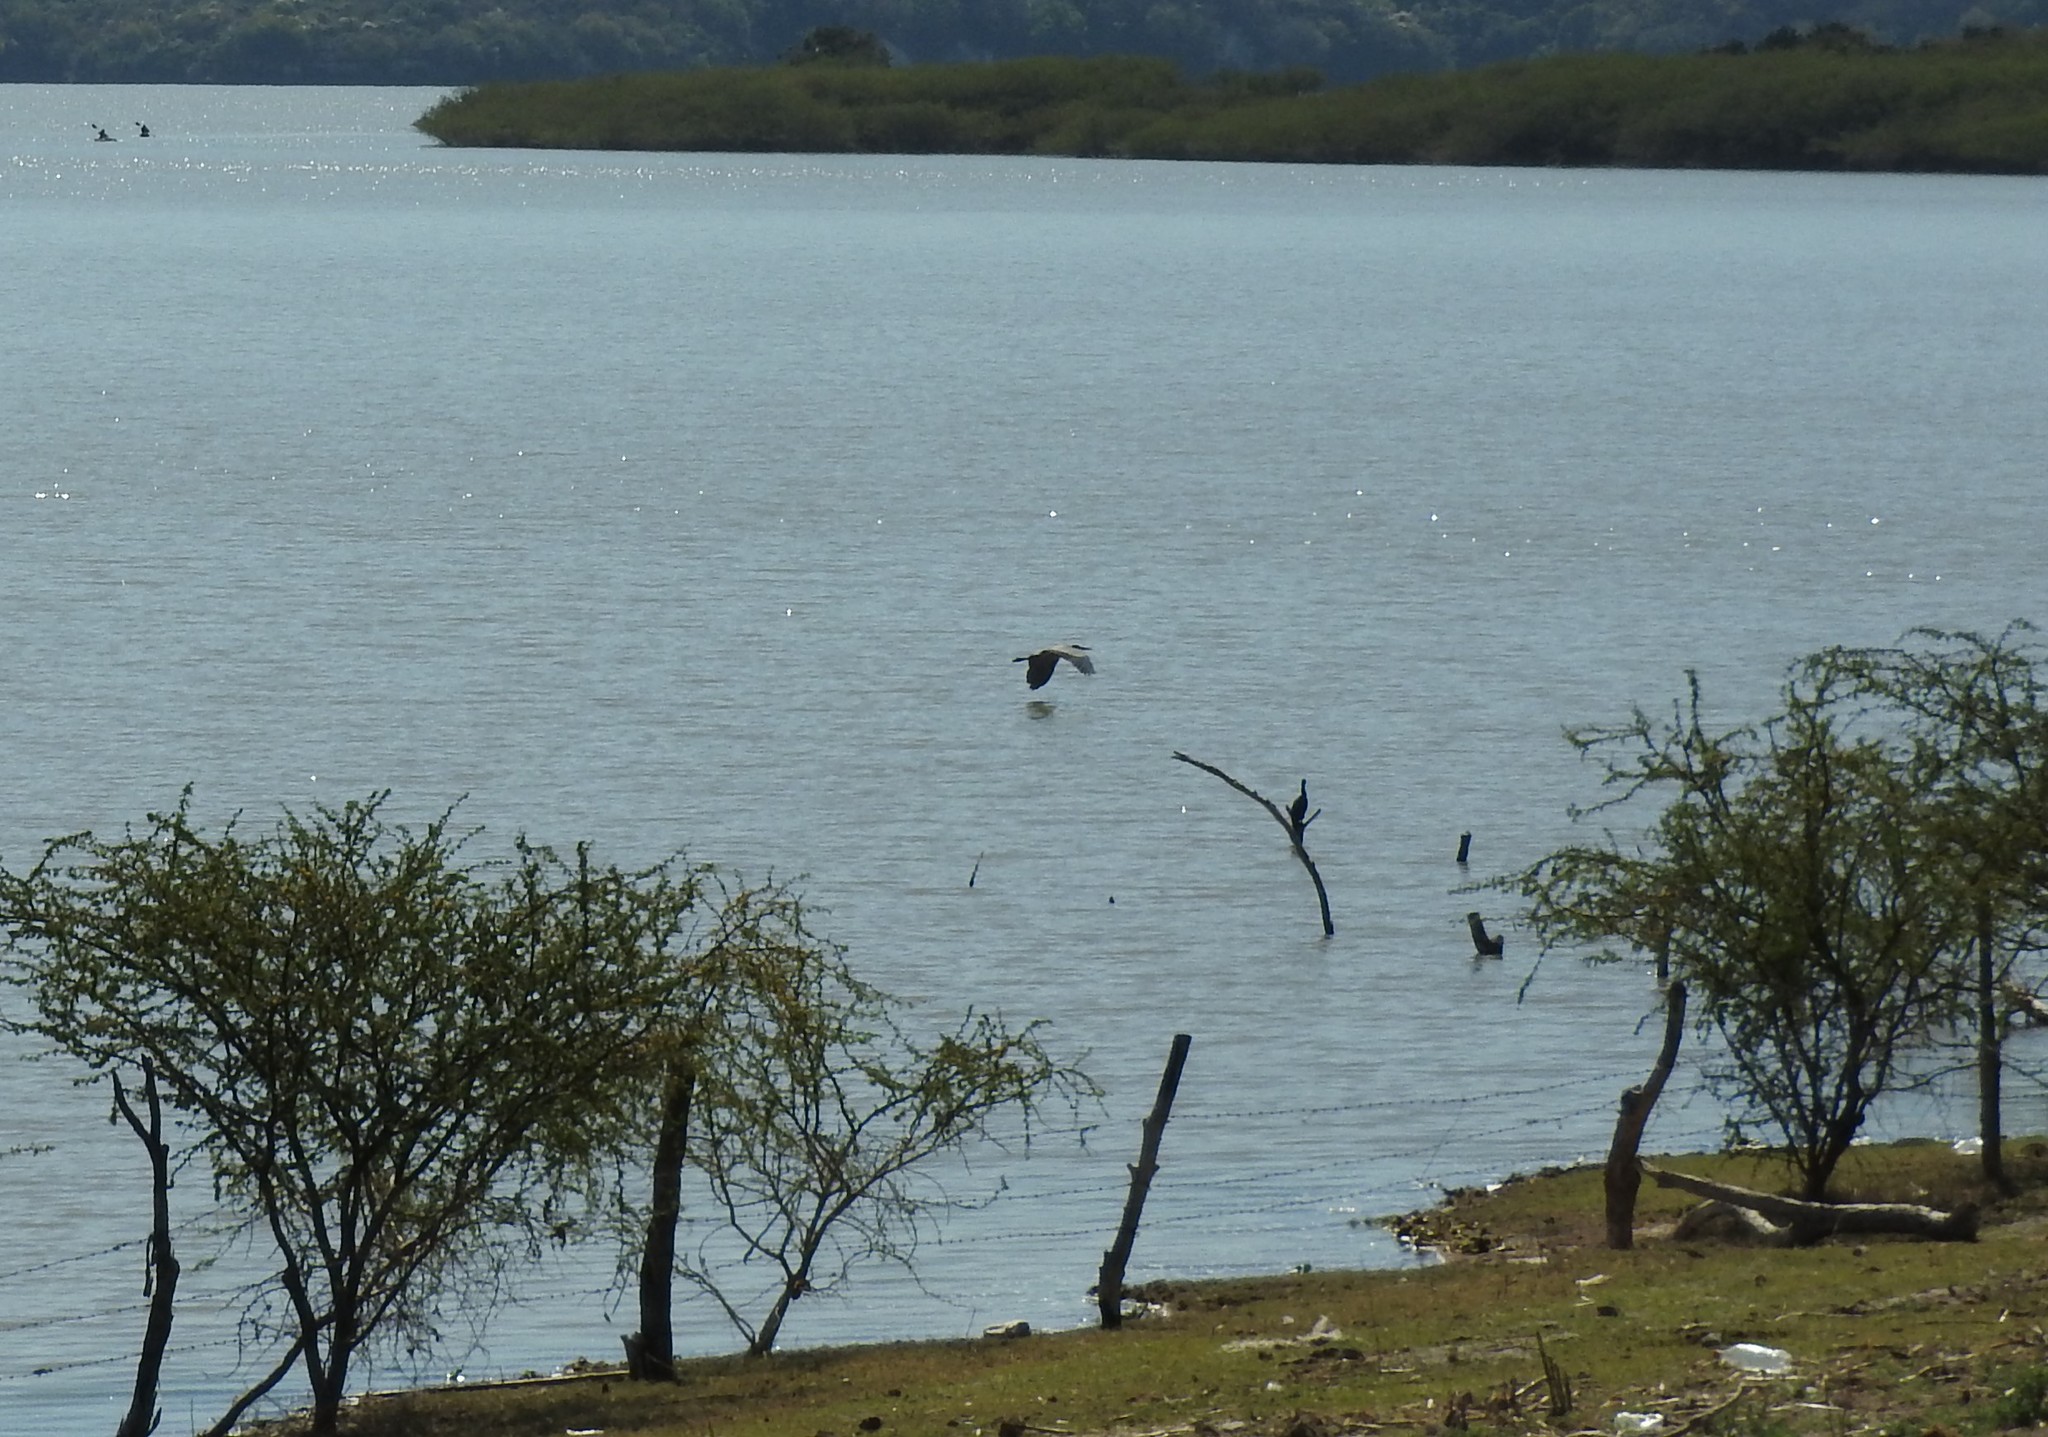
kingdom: Animalia
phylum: Chordata
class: Aves
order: Pelecaniformes
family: Ardeidae
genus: Ardea
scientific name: Ardea herodias
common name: Great blue heron
